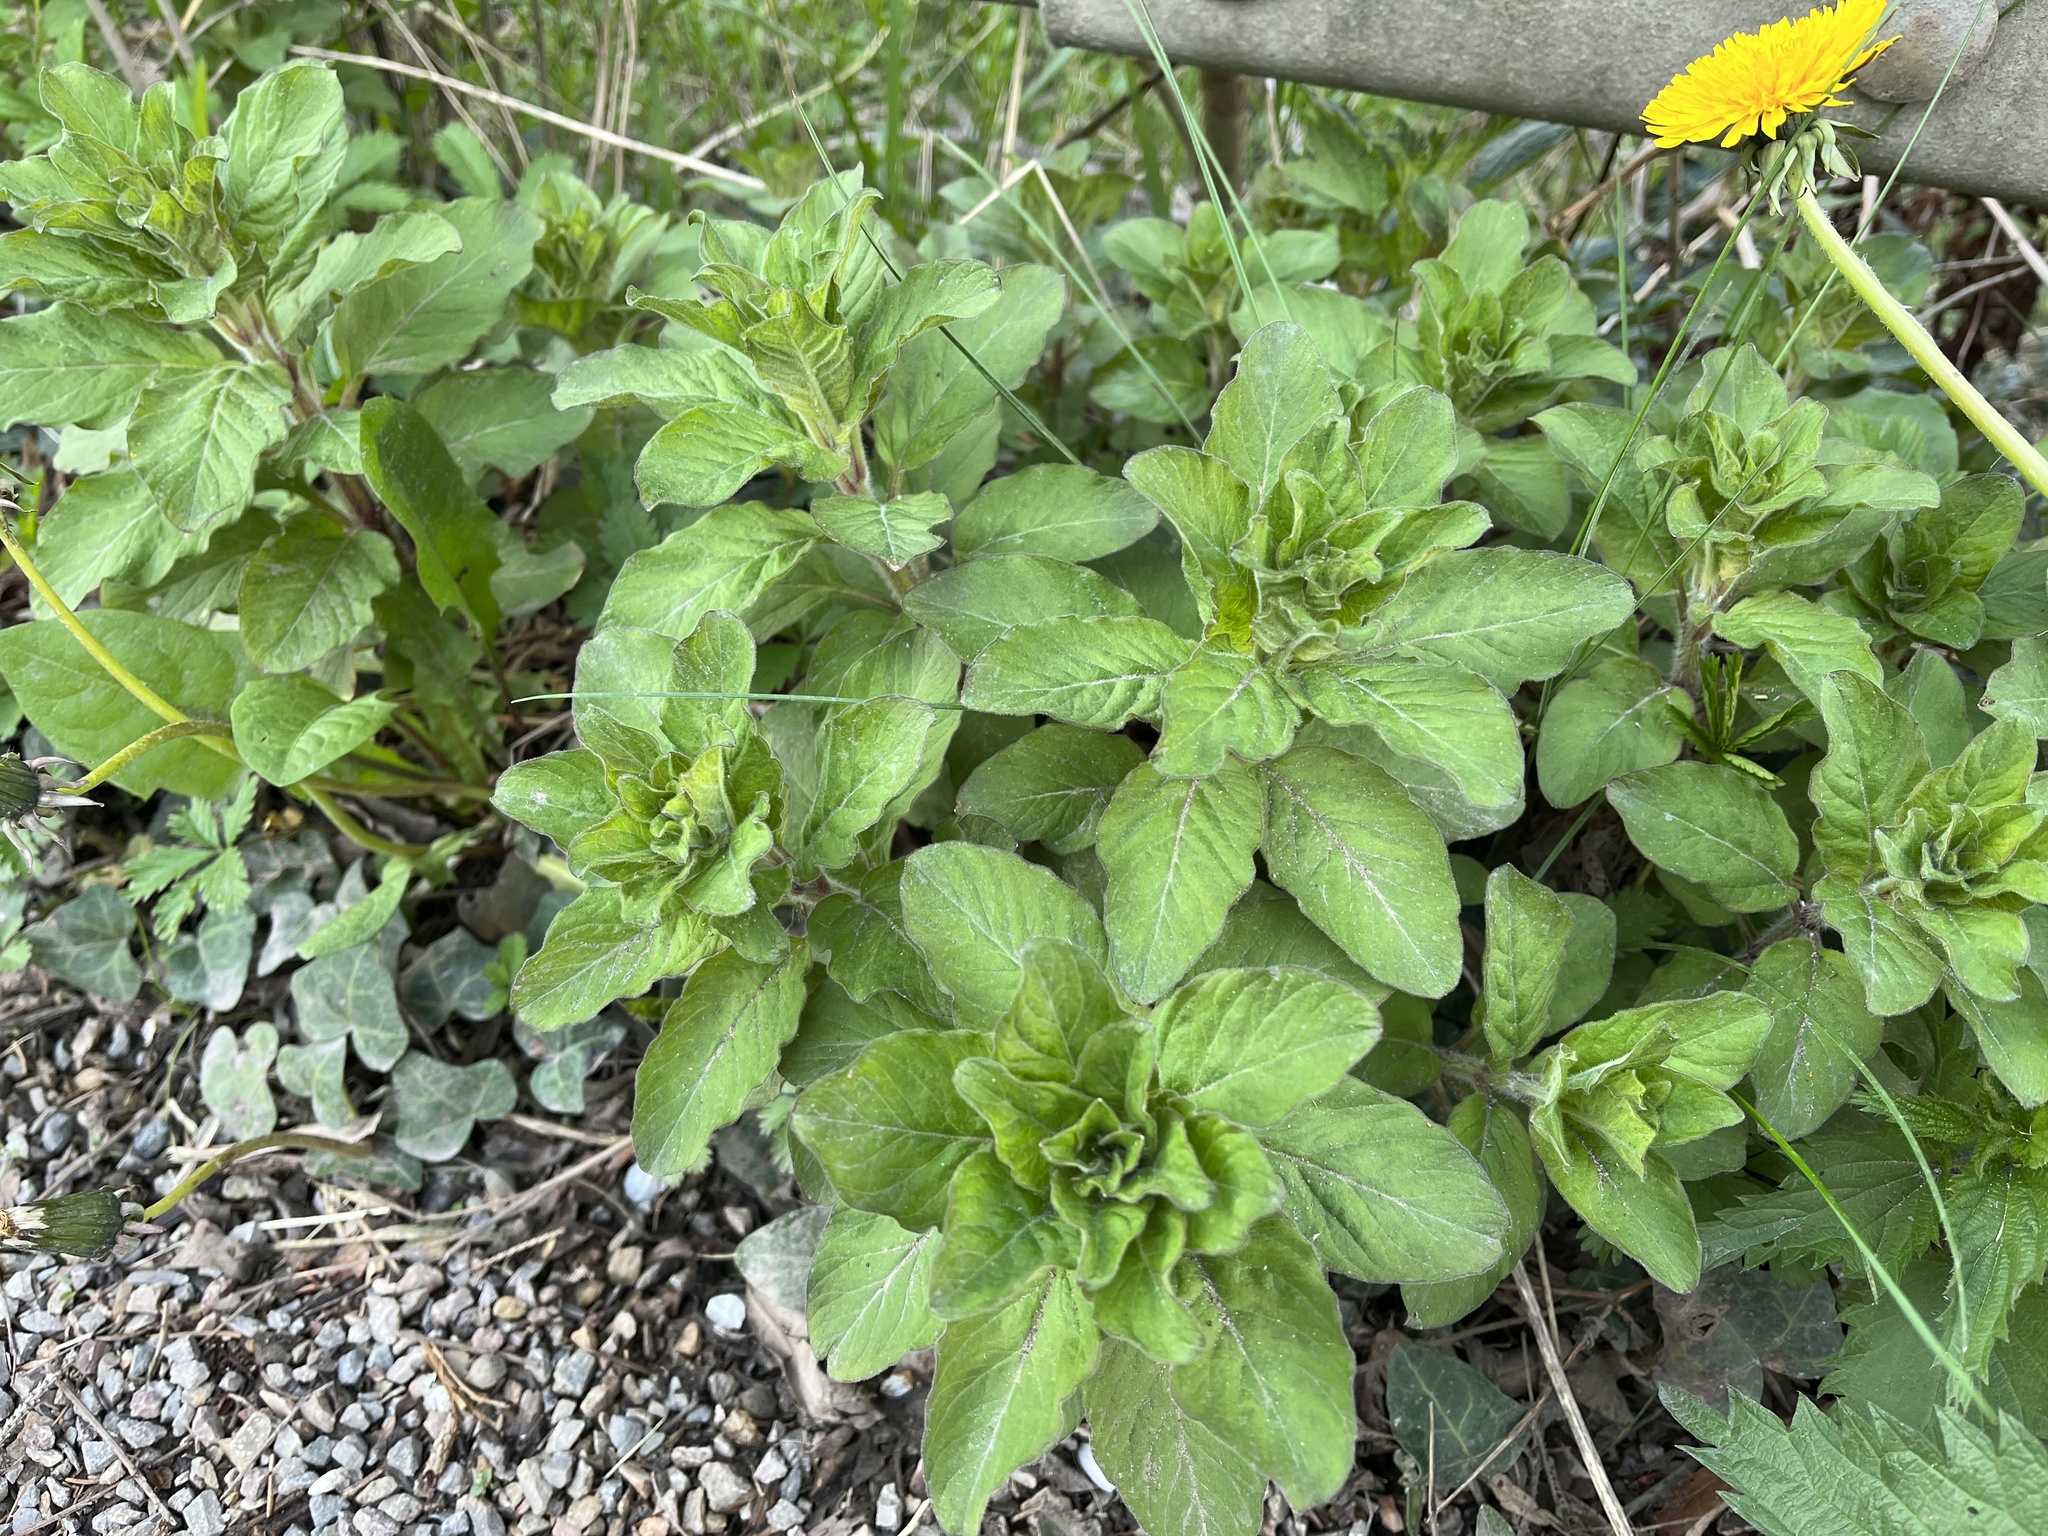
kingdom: Plantae
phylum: Tracheophyta
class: Magnoliopsida
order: Ericales
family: Primulaceae
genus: Lysimachia
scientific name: Lysimachia punctata
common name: Dotted loosestrife
